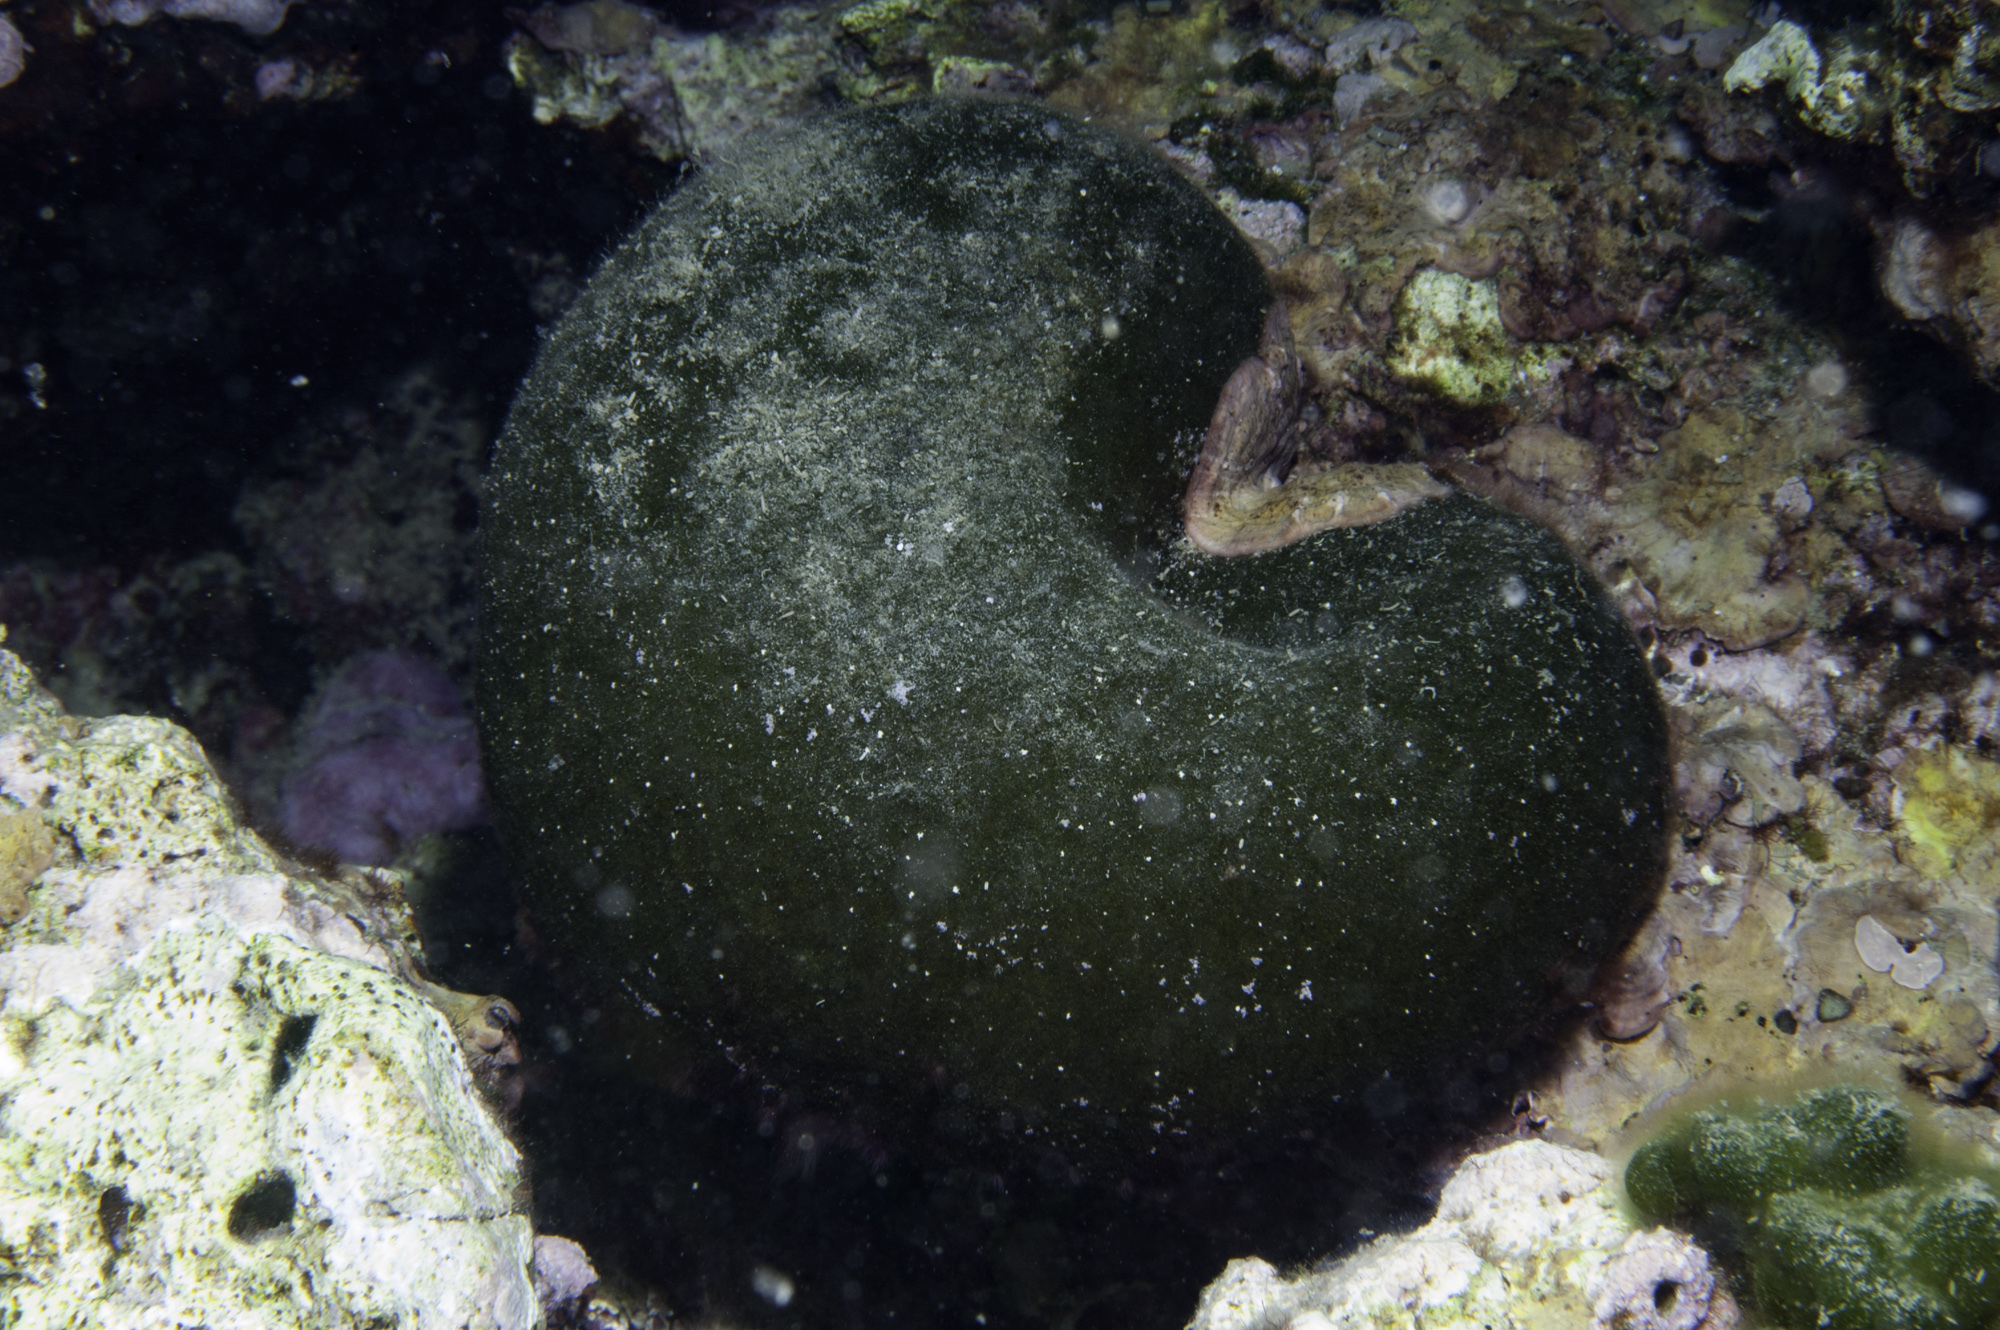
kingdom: Plantae
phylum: Chlorophyta
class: Ulvophyceae
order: Bryopsidales
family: Codiaceae
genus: Codium
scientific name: Codium bursa
